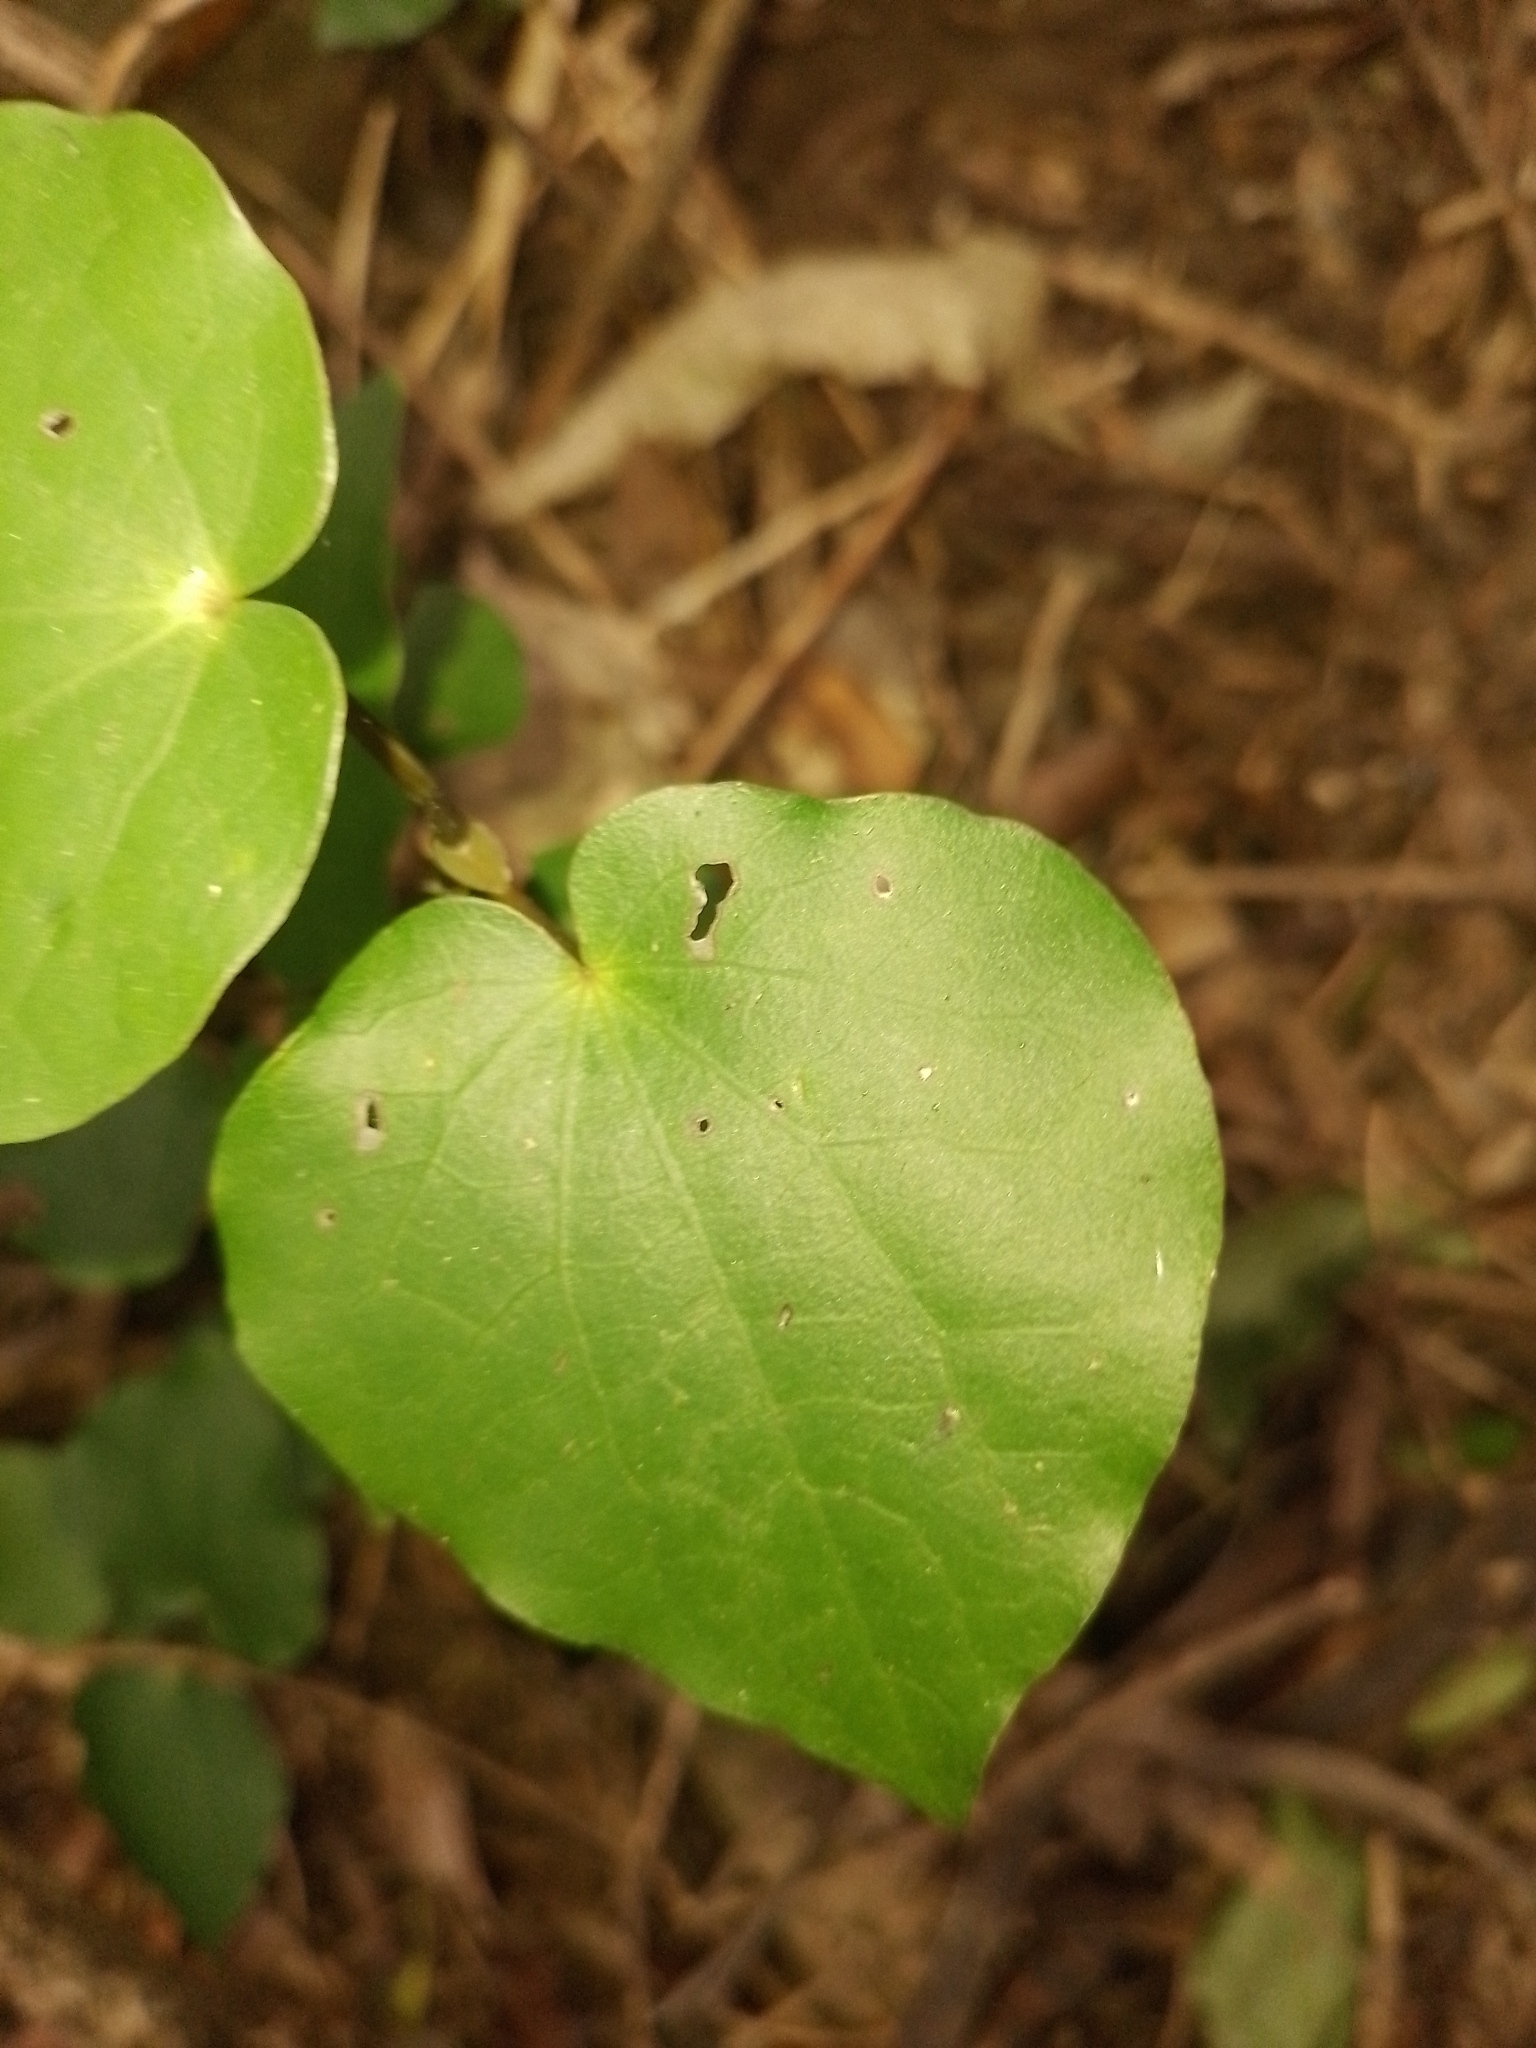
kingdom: Plantae
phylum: Tracheophyta
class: Magnoliopsida
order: Piperales
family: Piperaceae
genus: Macropiper
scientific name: Macropiper excelsum
